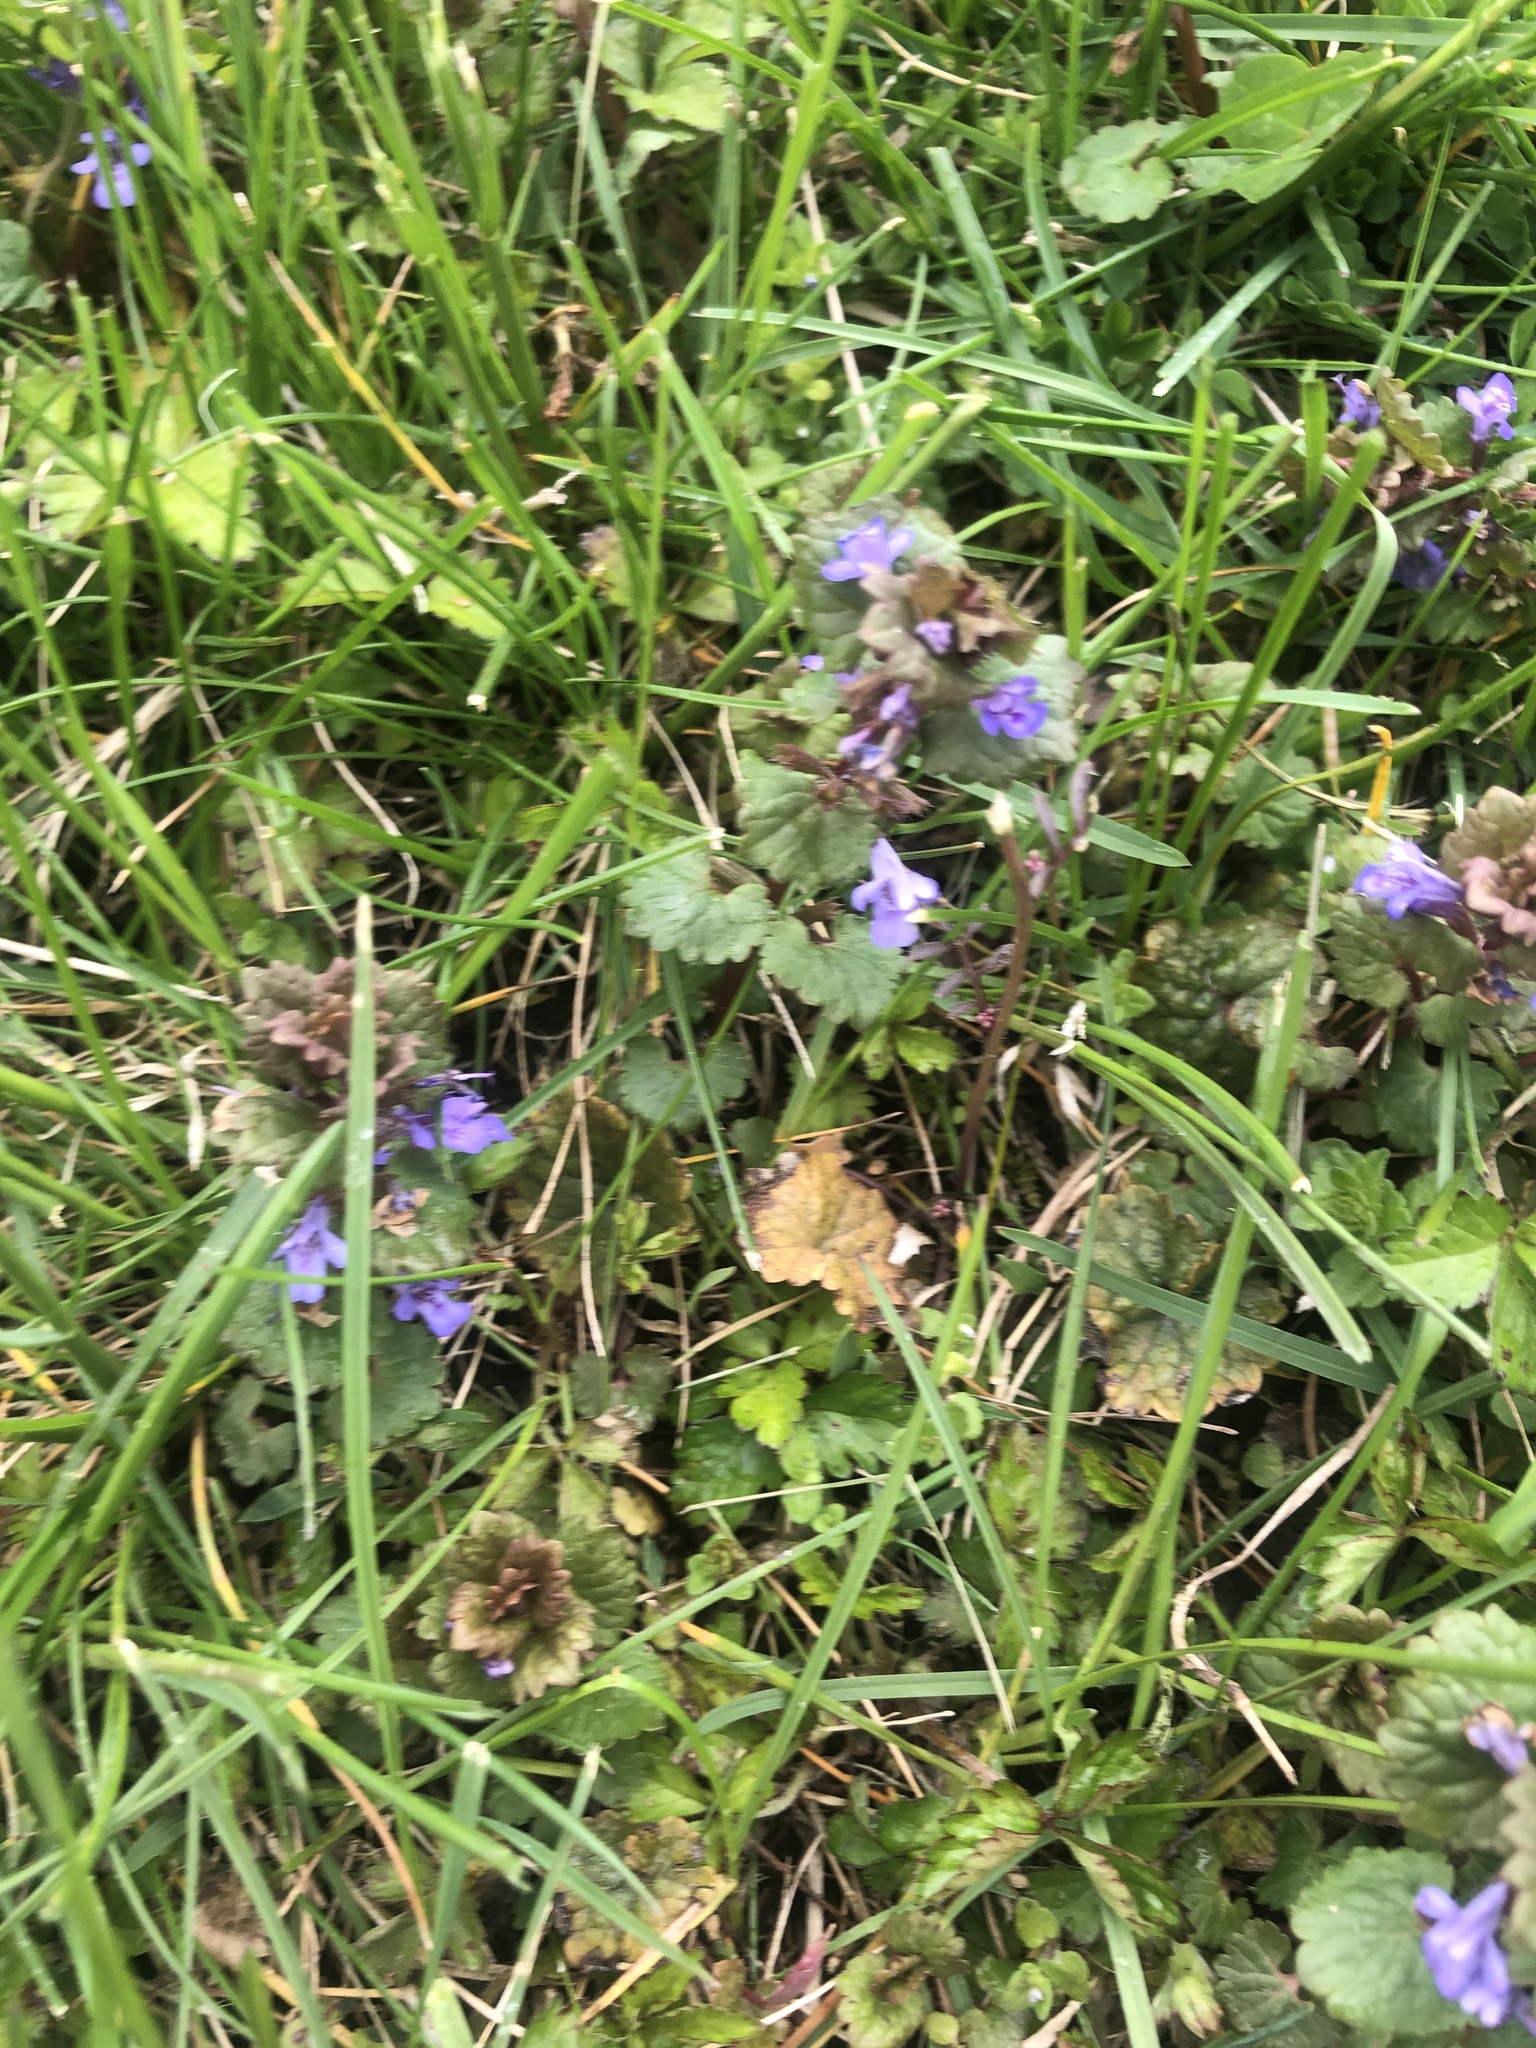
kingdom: Plantae
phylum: Tracheophyta
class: Magnoliopsida
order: Lamiales
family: Lamiaceae
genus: Glechoma
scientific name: Glechoma hederacea
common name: Ground ivy
